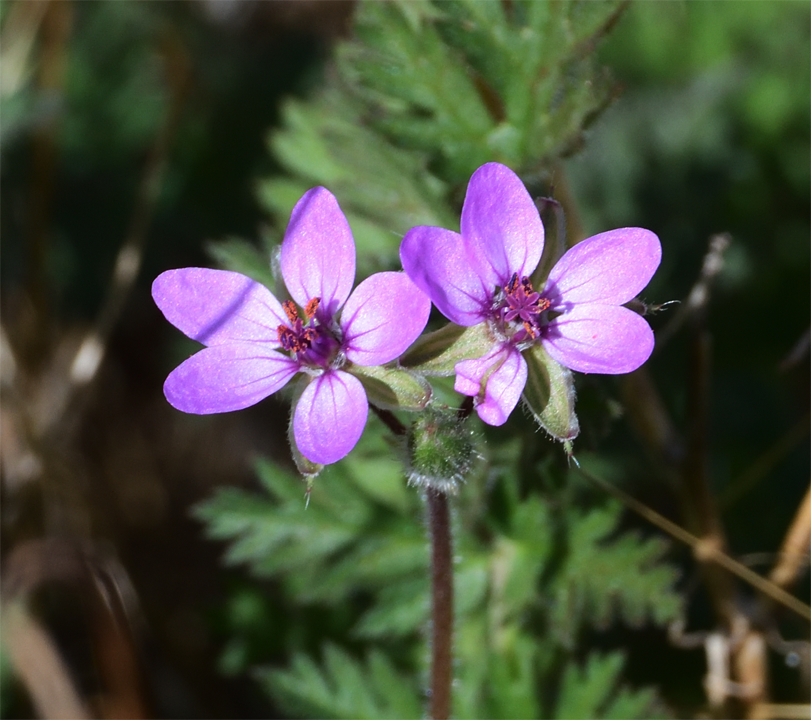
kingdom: Plantae
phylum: Tracheophyta
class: Magnoliopsida
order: Geraniales
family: Geraniaceae
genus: Erodium
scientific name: Erodium cicutarium
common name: Common stork's-bill
